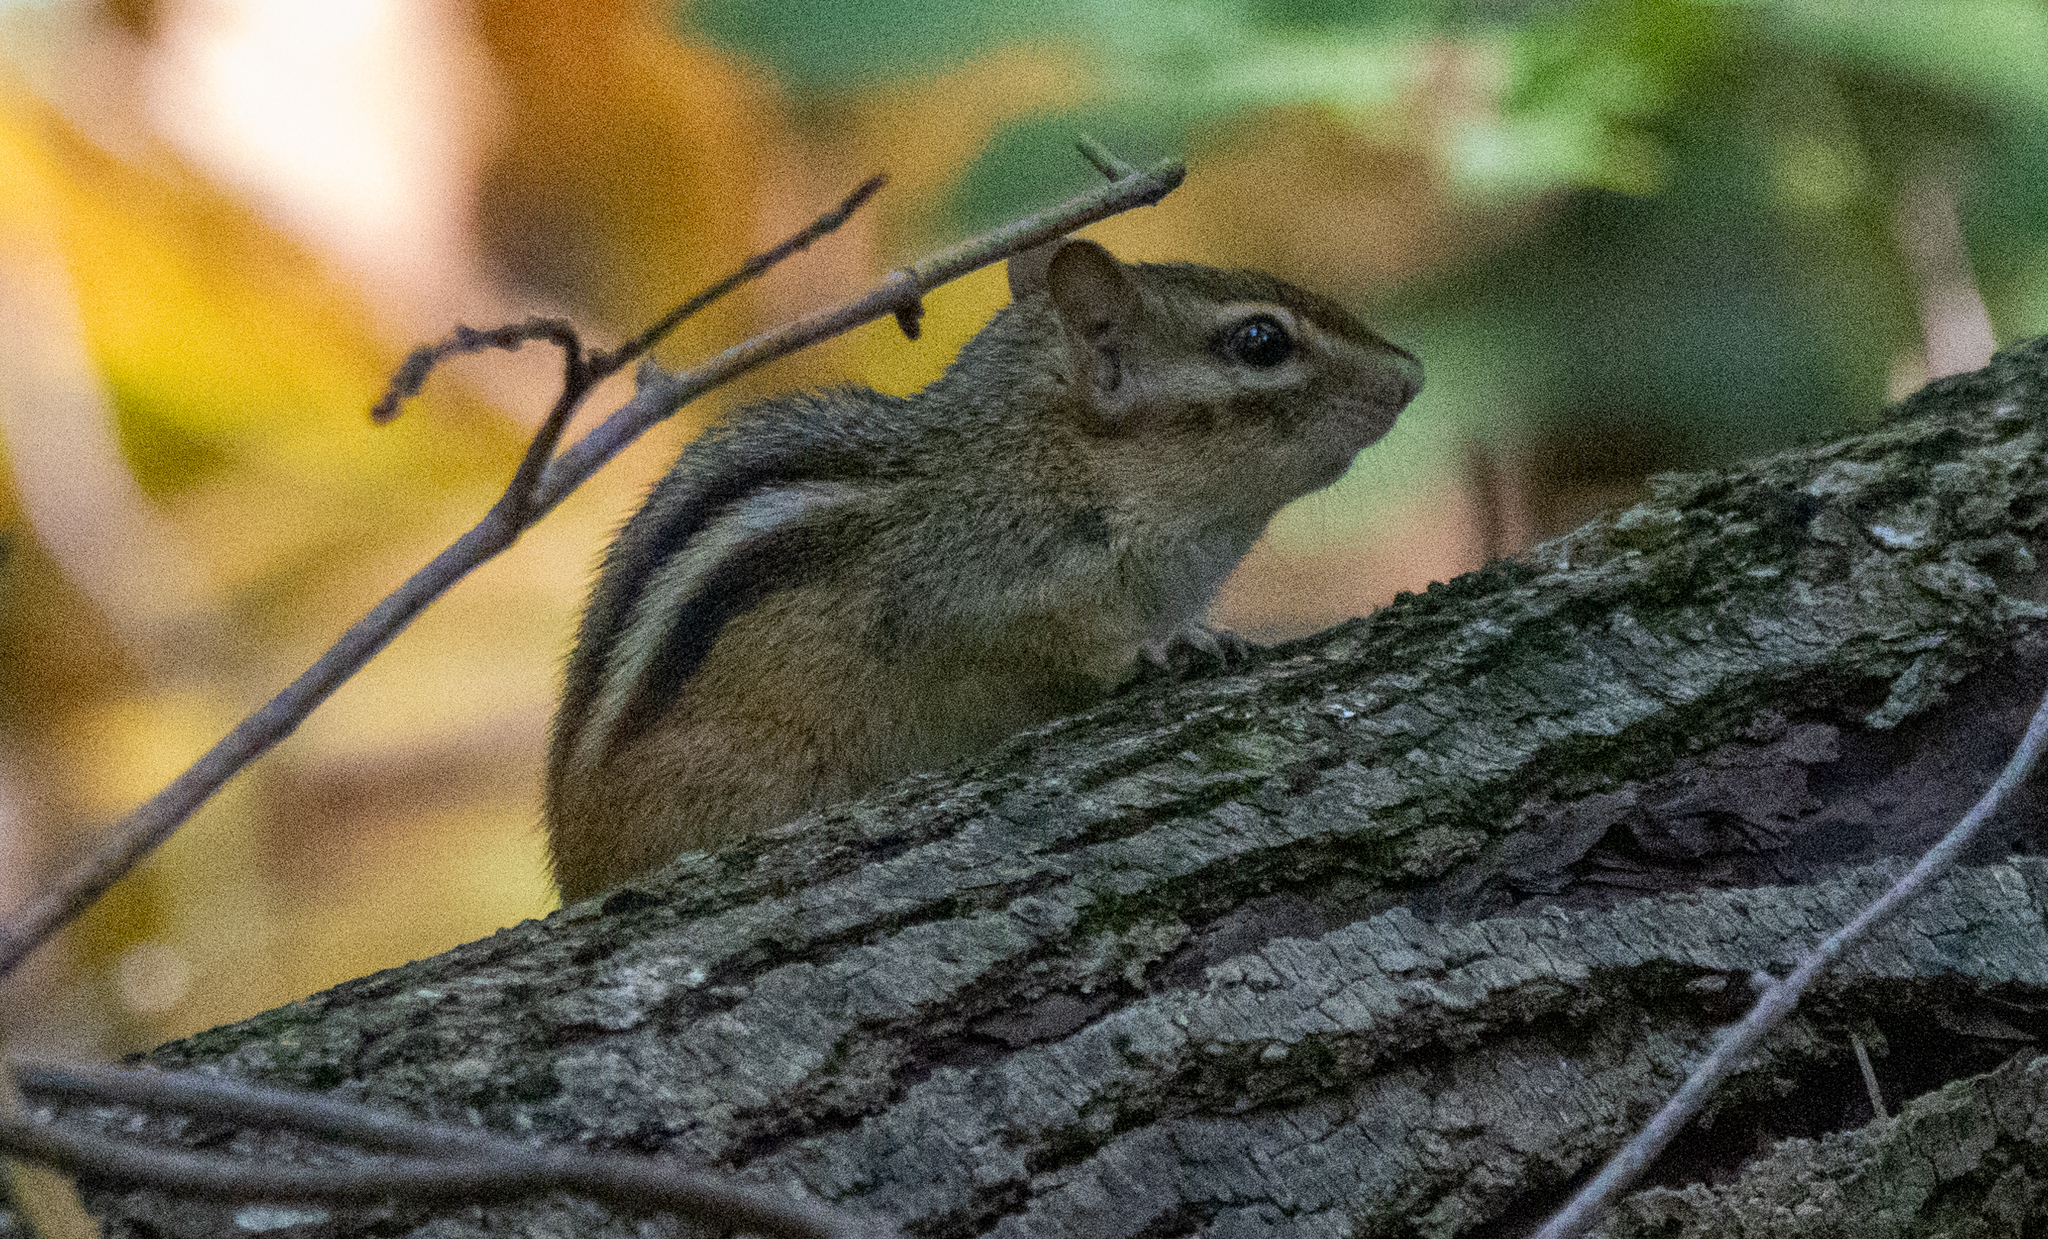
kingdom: Animalia
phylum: Chordata
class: Mammalia
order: Rodentia
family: Sciuridae
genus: Tamias
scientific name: Tamias striatus
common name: Eastern chipmunk
